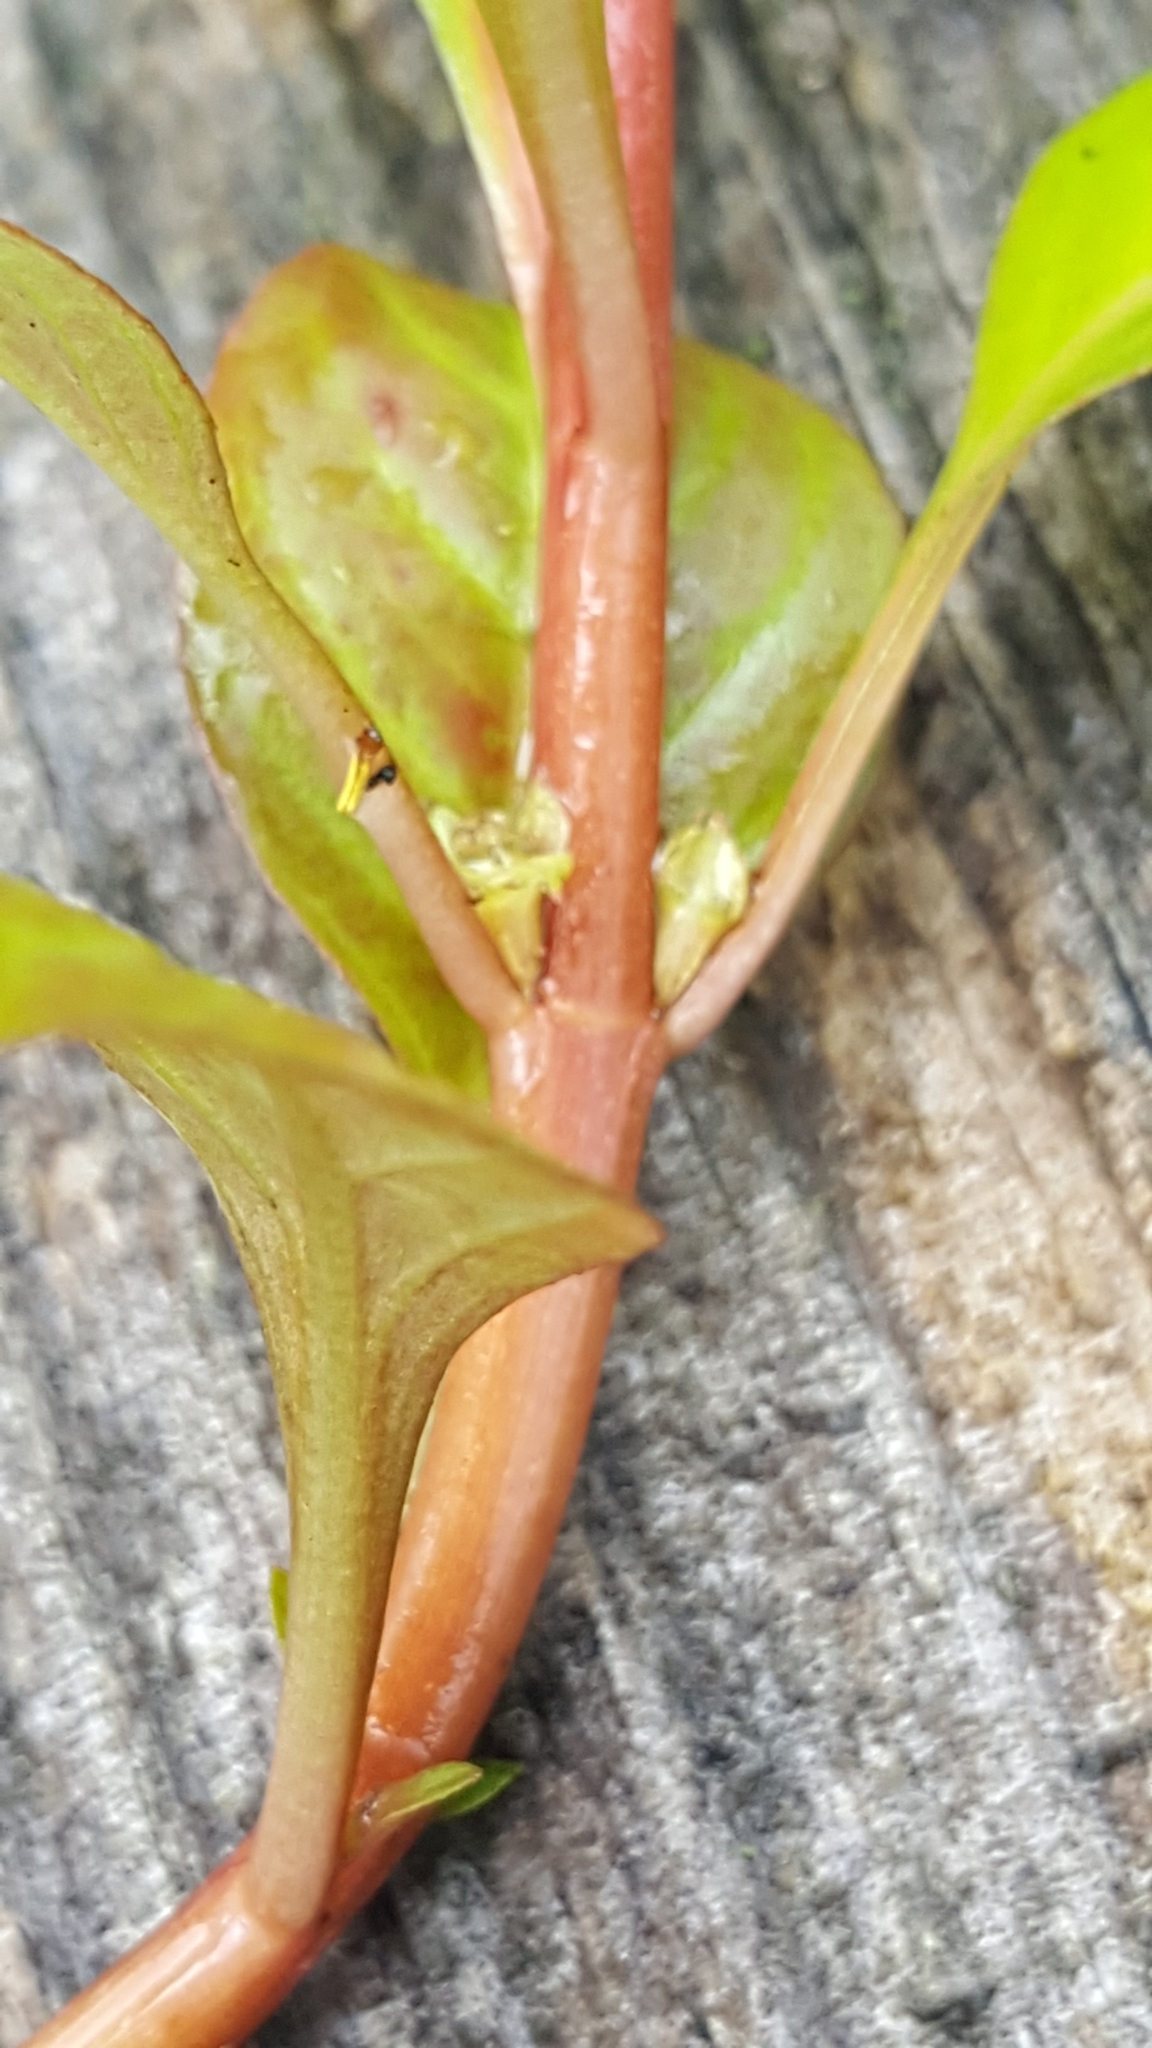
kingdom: Plantae
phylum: Tracheophyta
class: Magnoliopsida
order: Myrtales
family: Onagraceae
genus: Ludwigia
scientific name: Ludwigia palustris
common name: Hampshire-purslane
